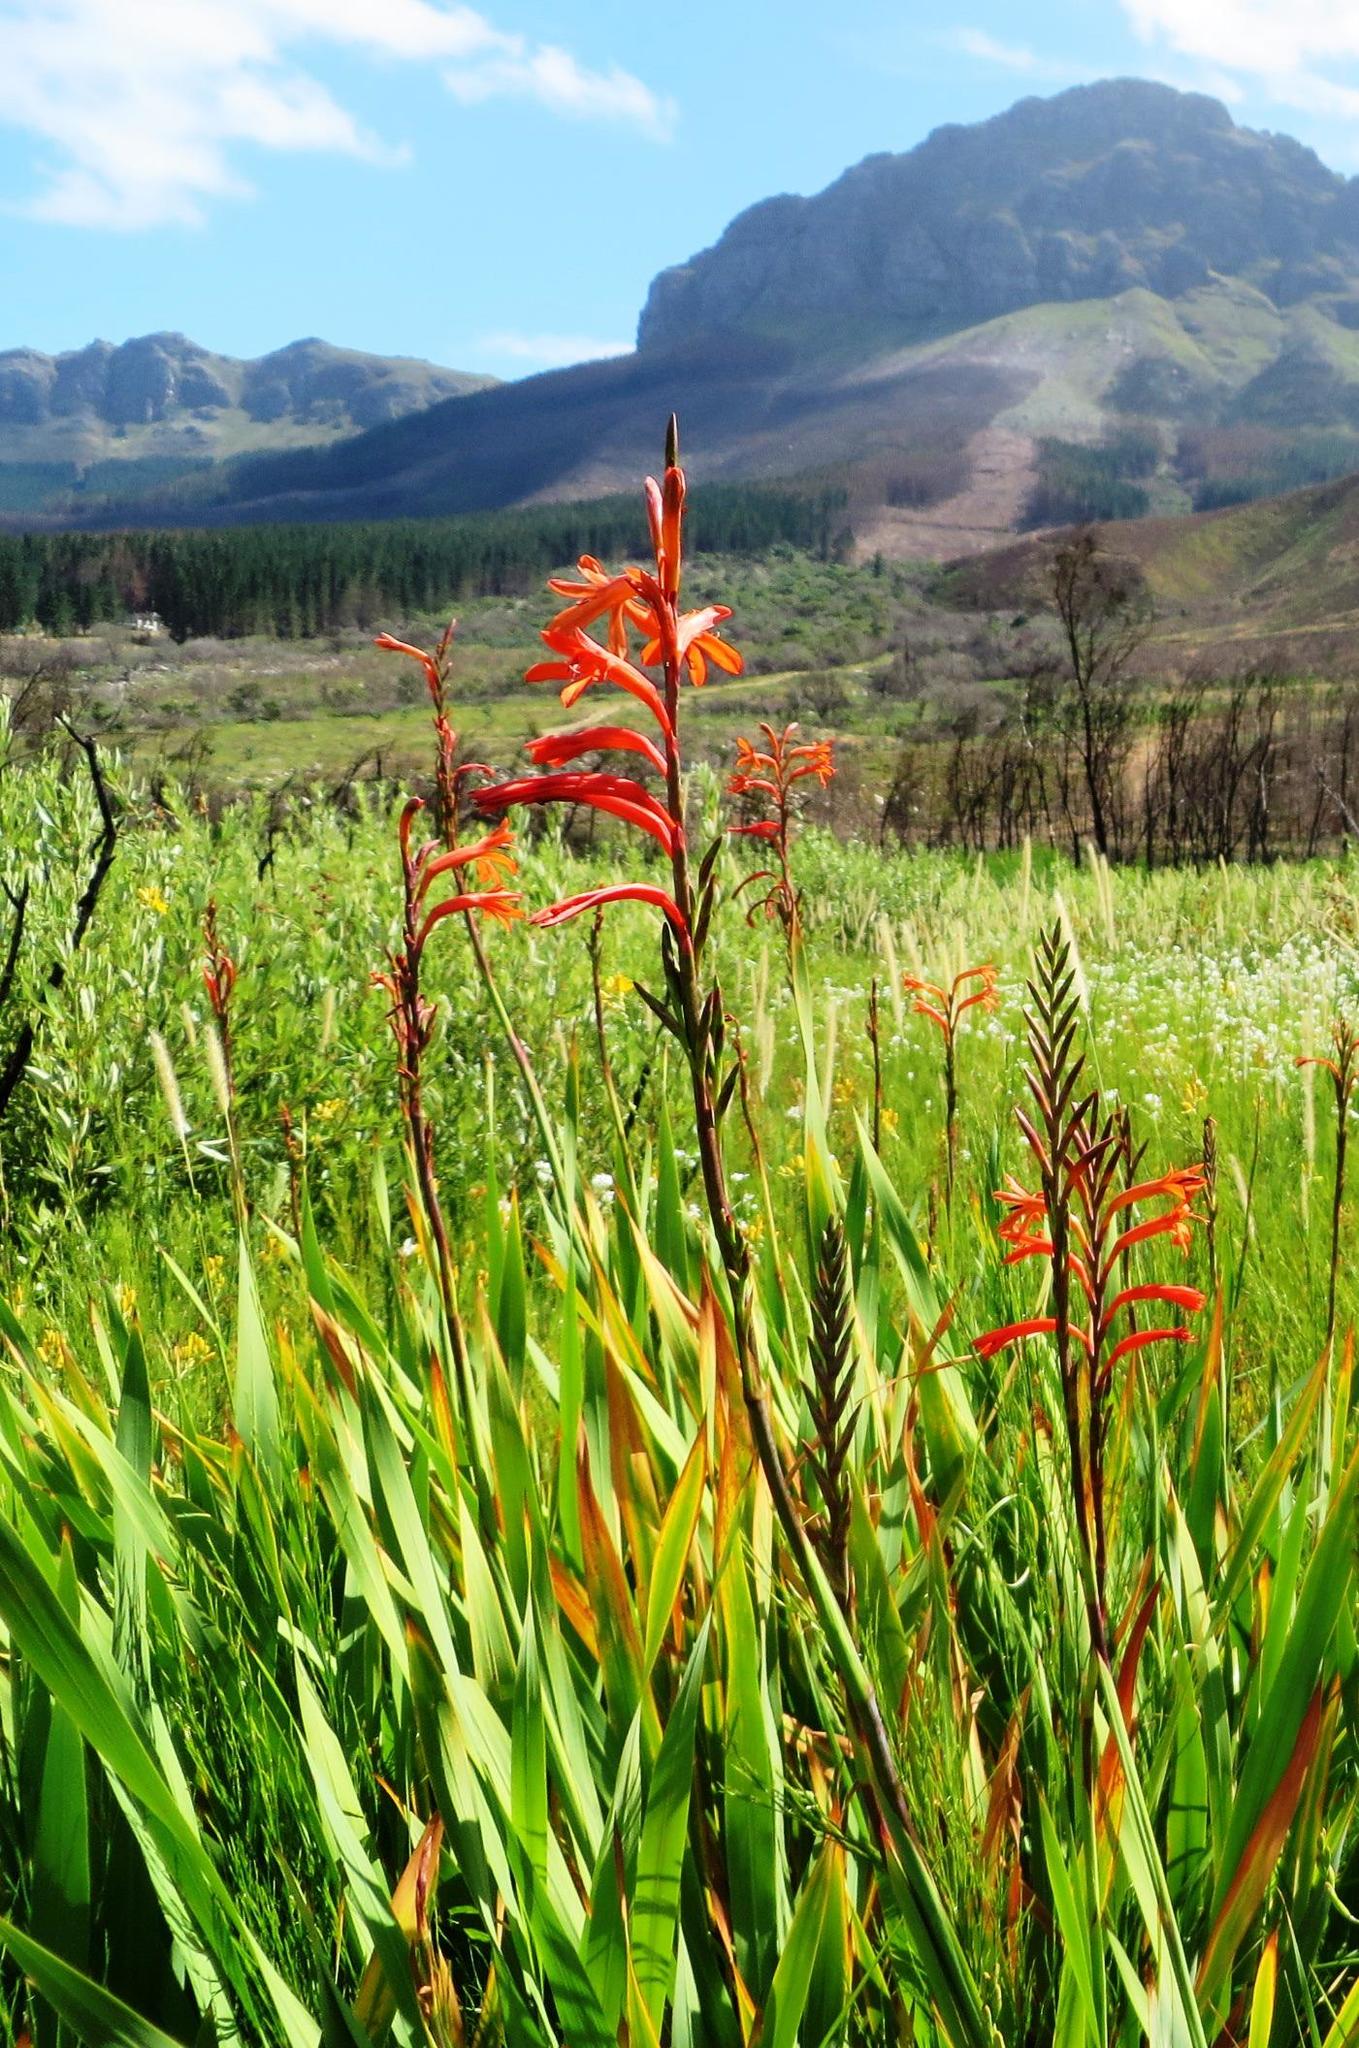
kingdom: Plantae
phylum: Tracheophyta
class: Liliopsida
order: Asparagales
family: Iridaceae
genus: Watsonia
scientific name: Watsonia angusta
